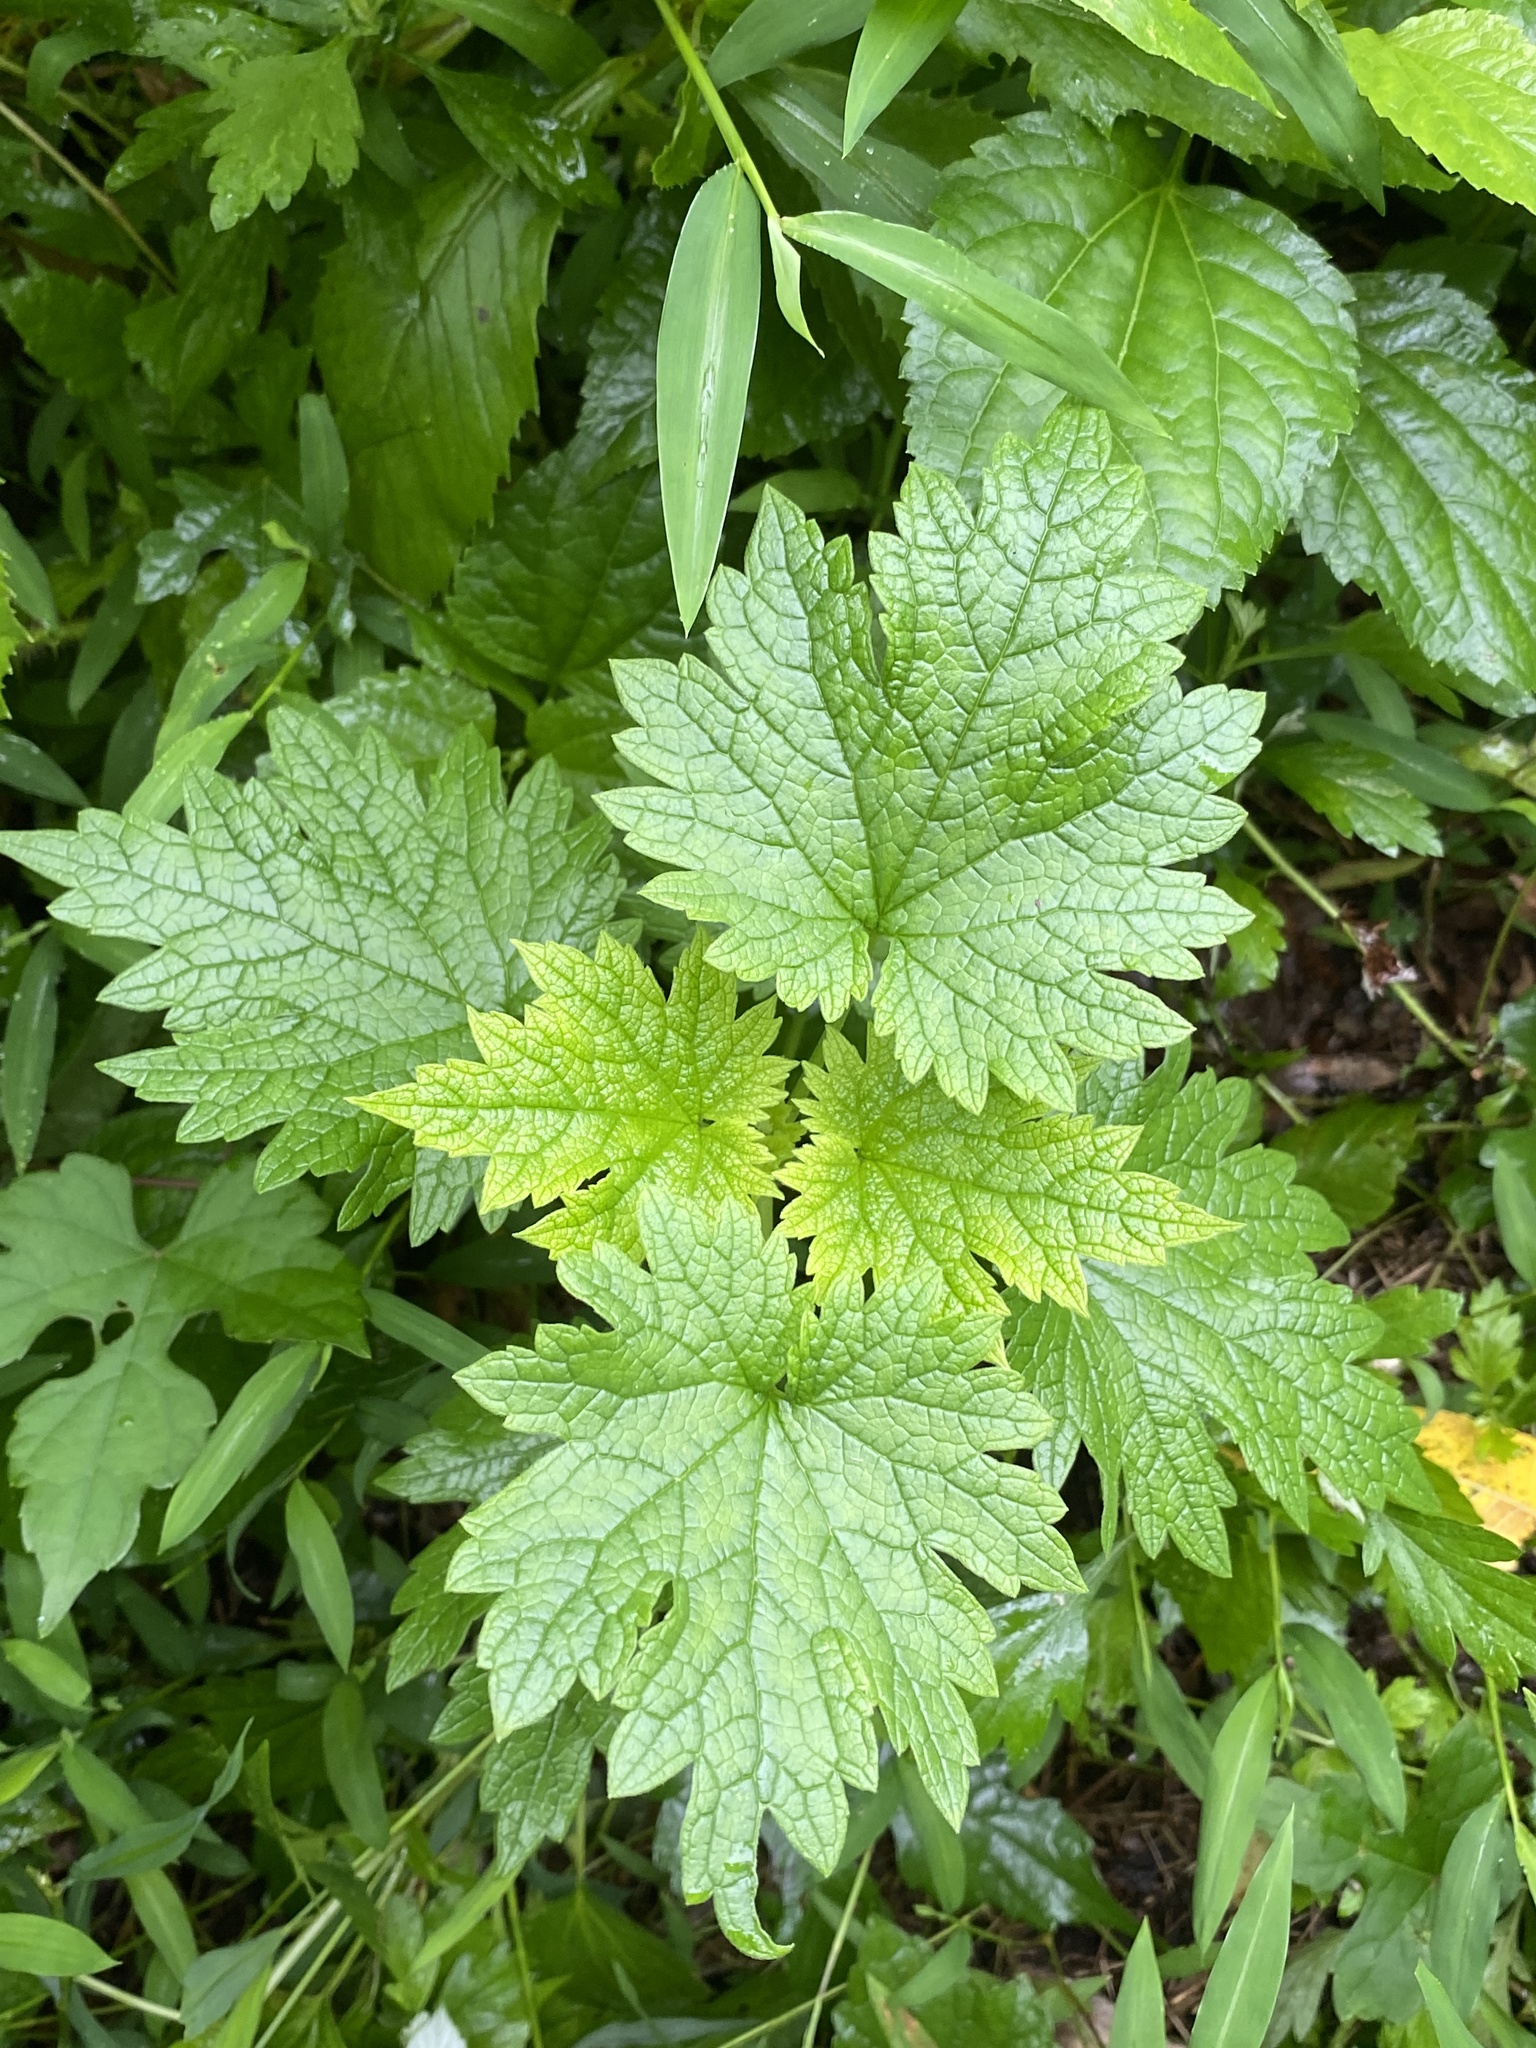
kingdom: Plantae
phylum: Tracheophyta
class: Magnoliopsida
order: Lamiales
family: Lamiaceae
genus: Leonurus
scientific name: Leonurus cardiaca
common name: Motherwort
